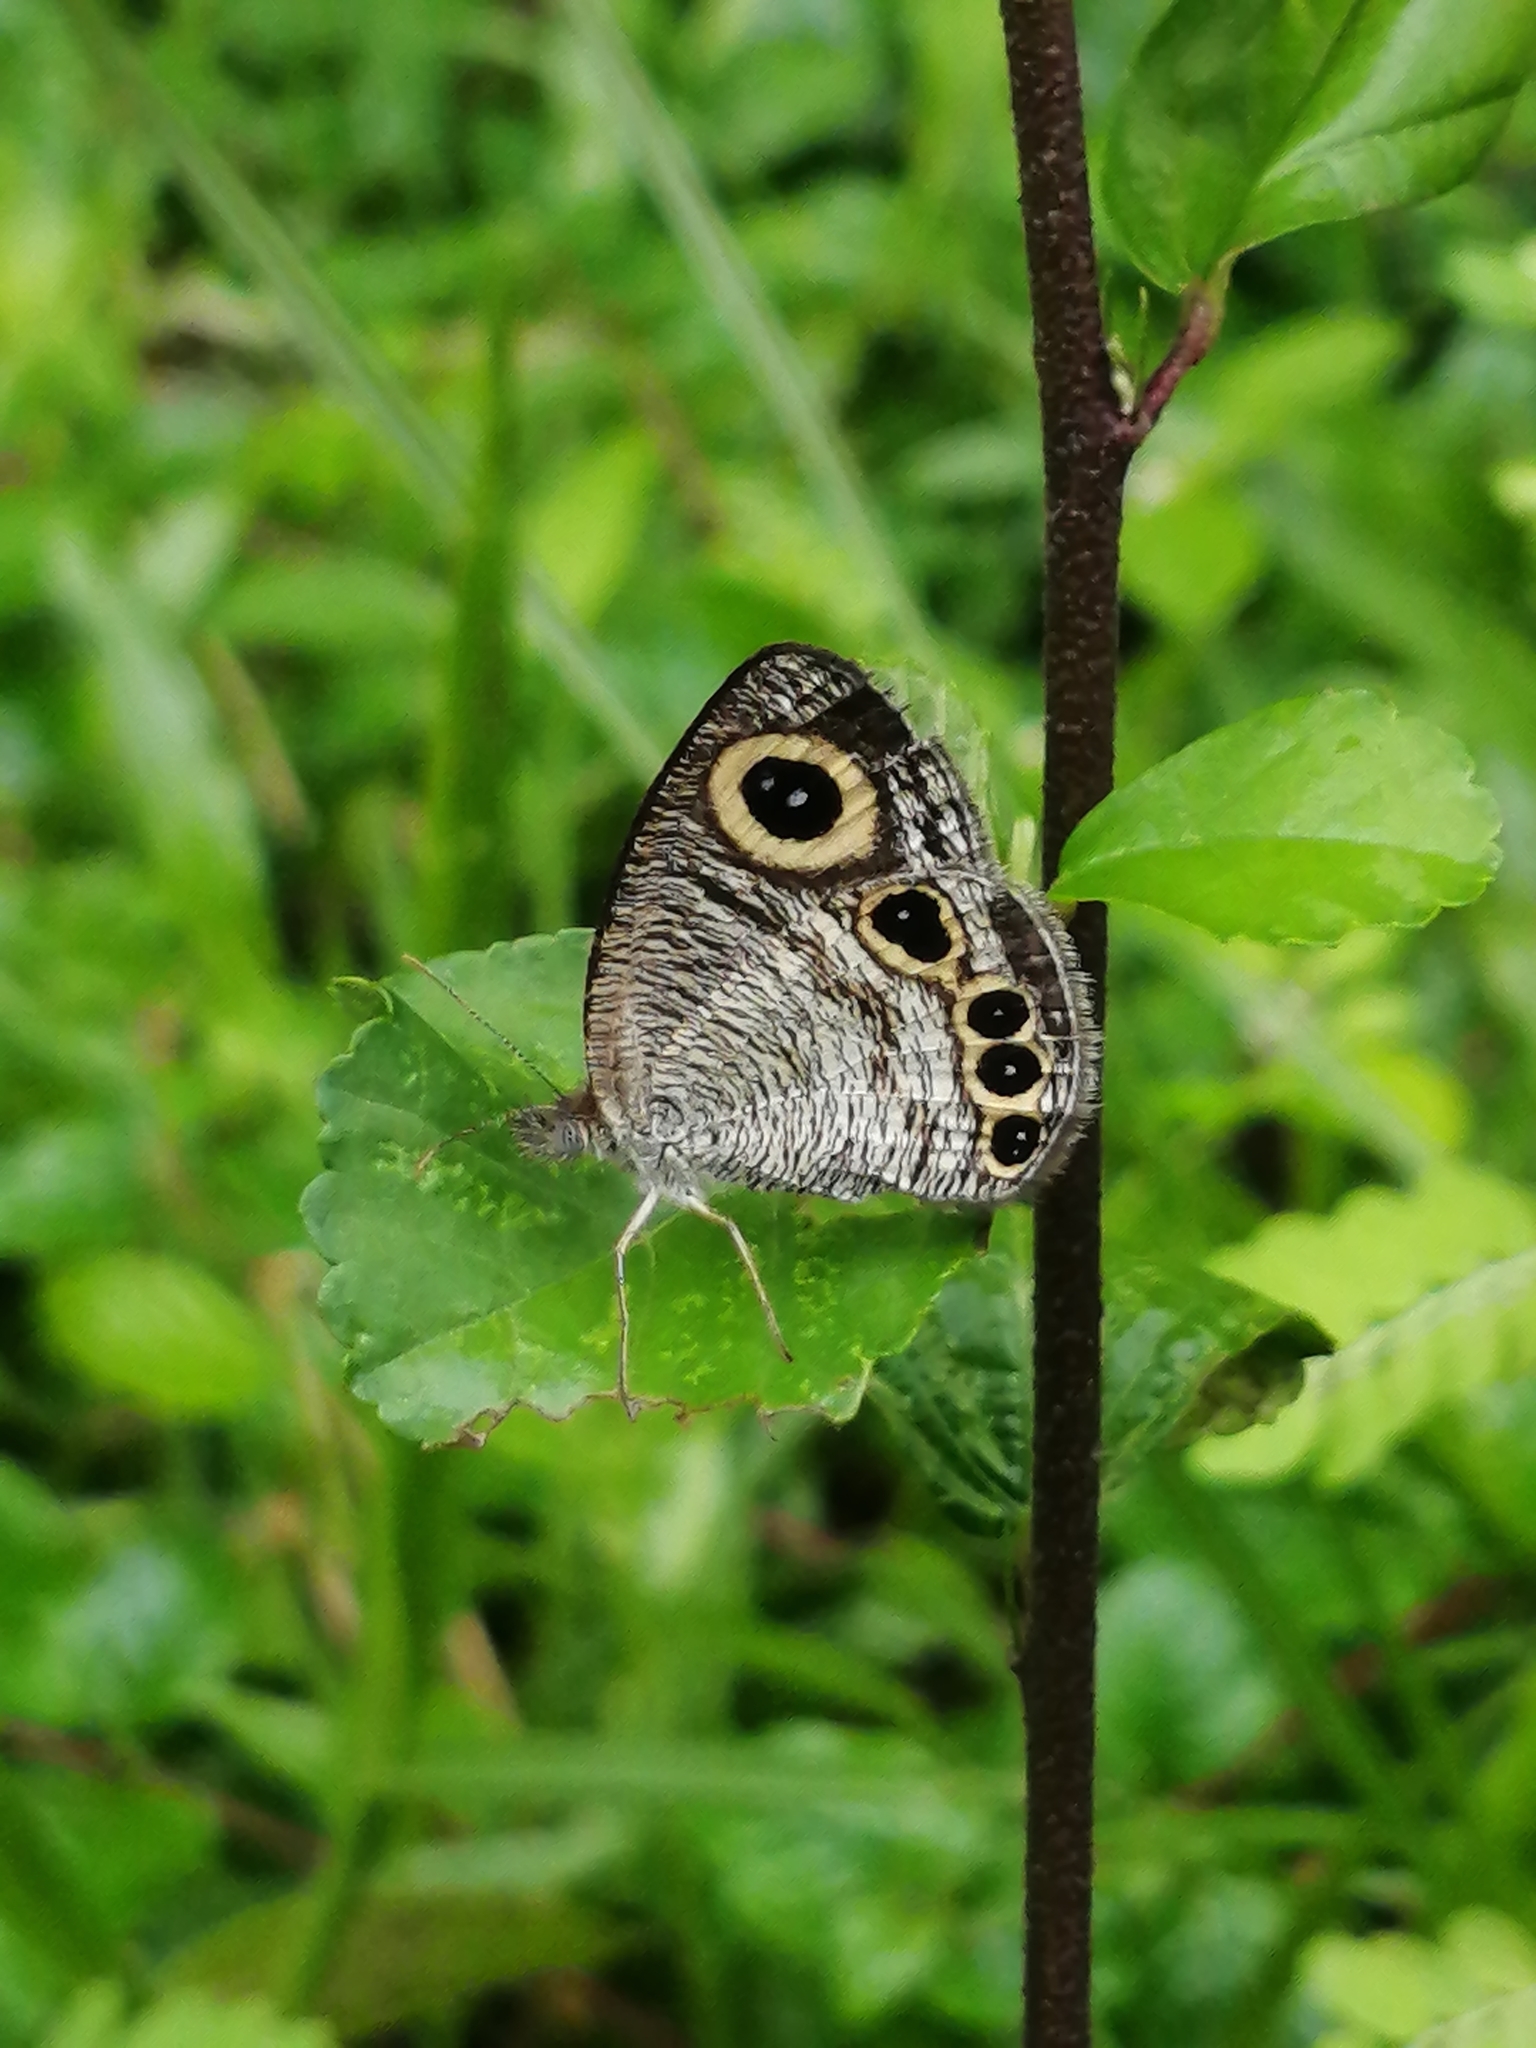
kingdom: Animalia
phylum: Arthropoda
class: Insecta
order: Lepidoptera
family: Nymphalidae
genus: Ypthima
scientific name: Ypthima huebneri
